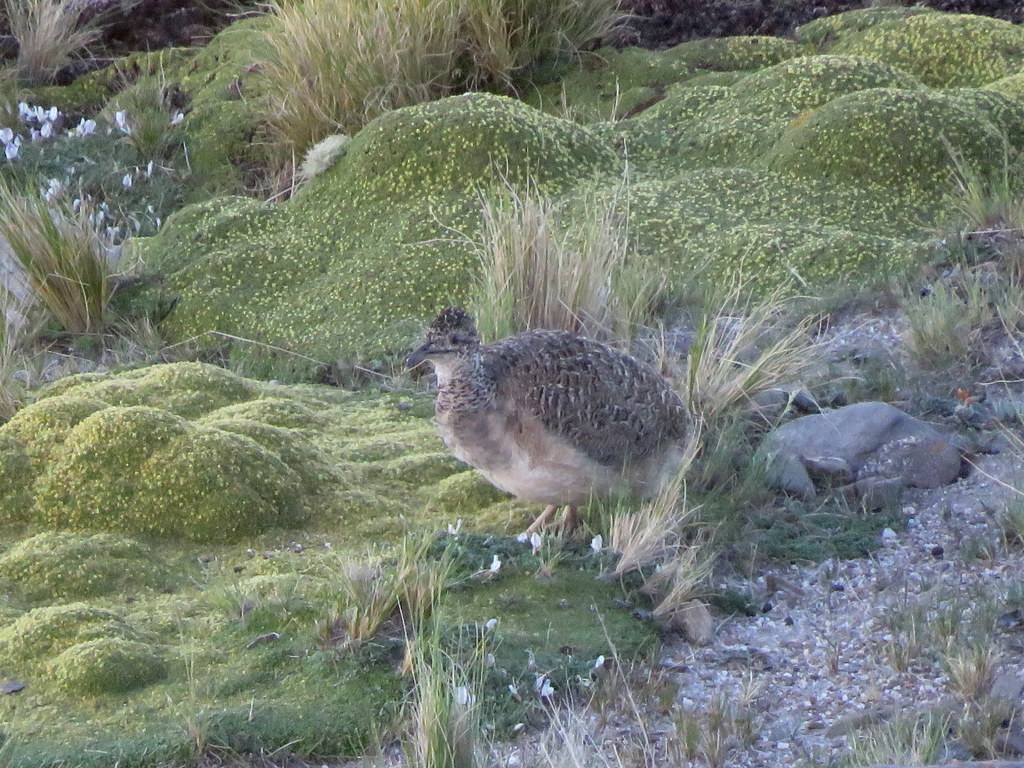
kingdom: Animalia
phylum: Chordata
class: Aves
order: Tinamiformes
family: Tinamidae
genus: Nothoprocta
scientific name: Nothoprocta ornata
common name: Ornate tinamou
